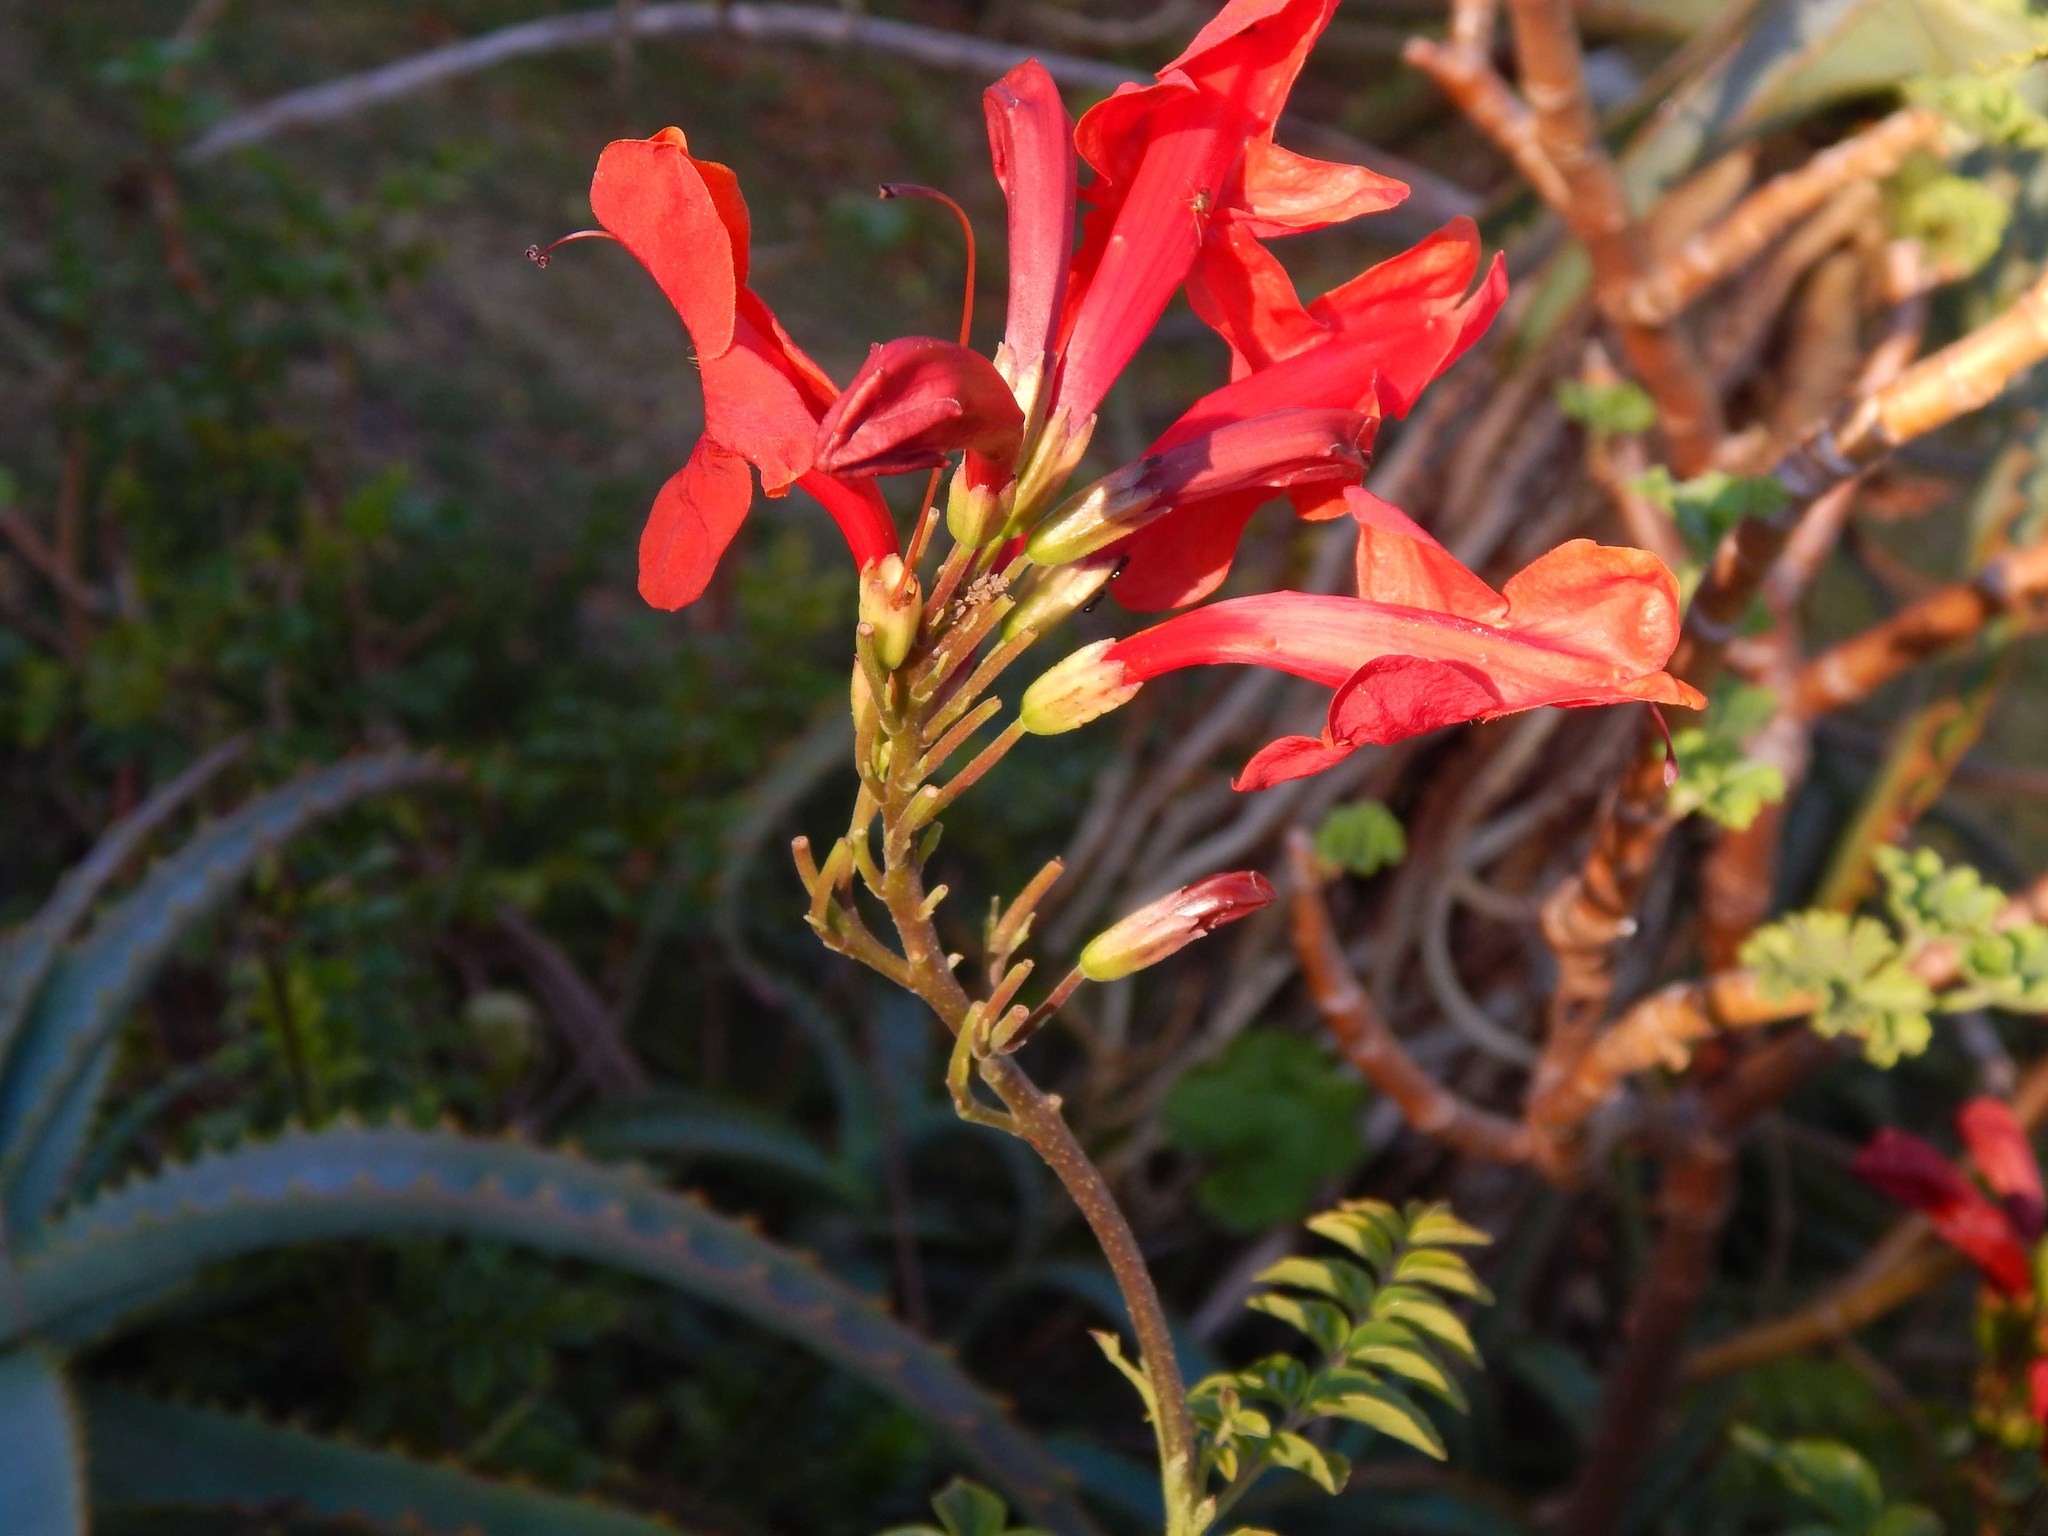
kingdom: Plantae
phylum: Tracheophyta
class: Magnoliopsida
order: Lamiales
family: Bignoniaceae
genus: Tecomaria
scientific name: Tecomaria capensis
